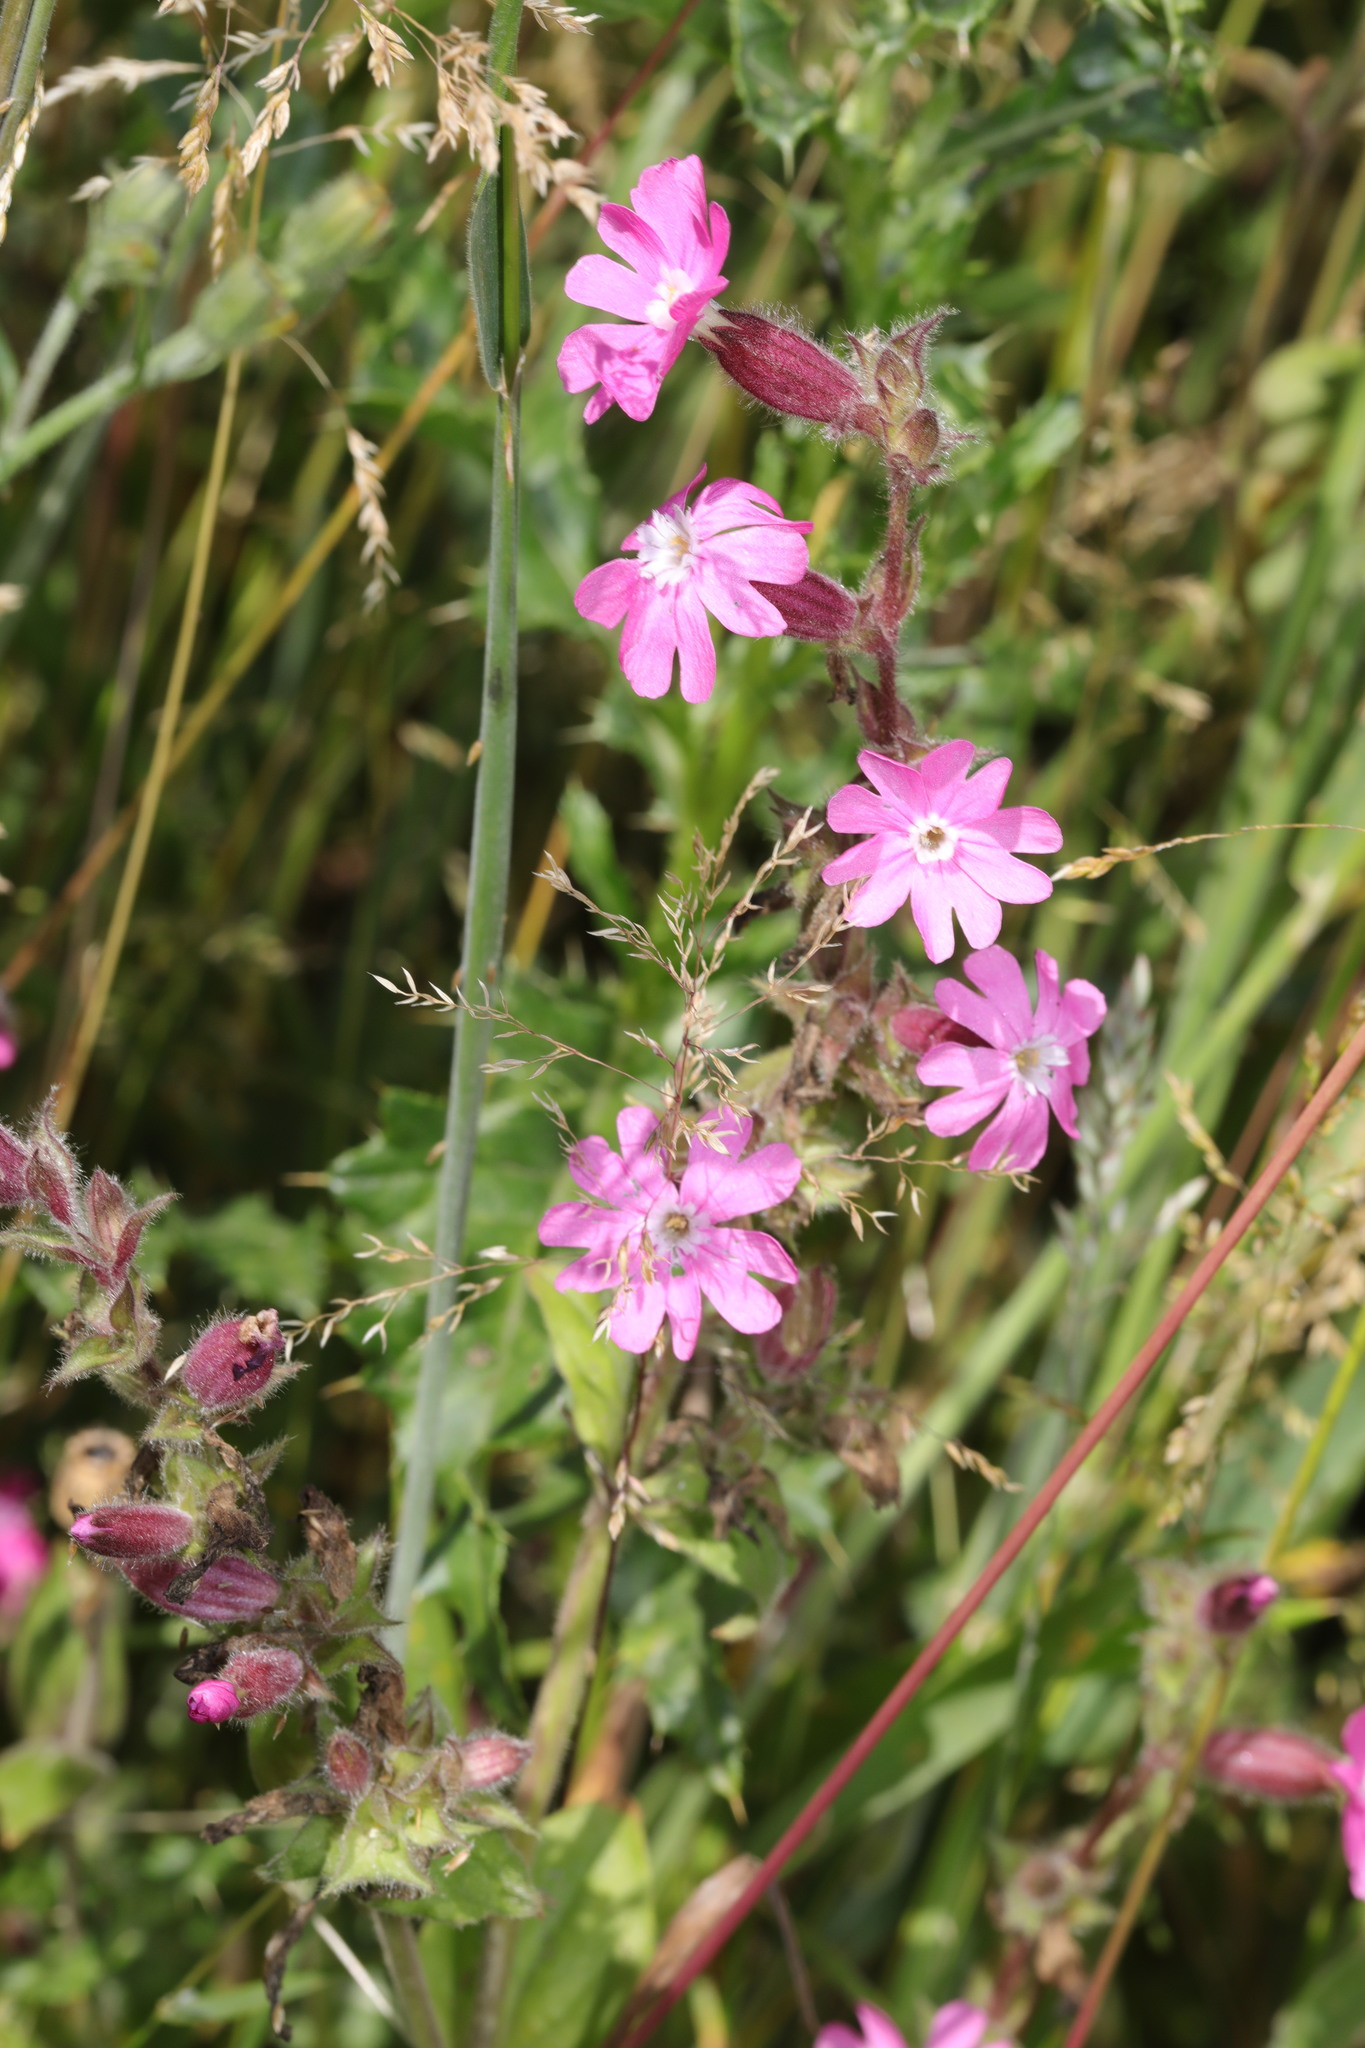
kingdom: Plantae
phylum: Tracheophyta
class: Magnoliopsida
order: Caryophyllales
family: Caryophyllaceae
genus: Silene
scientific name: Silene dioica
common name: Red campion
